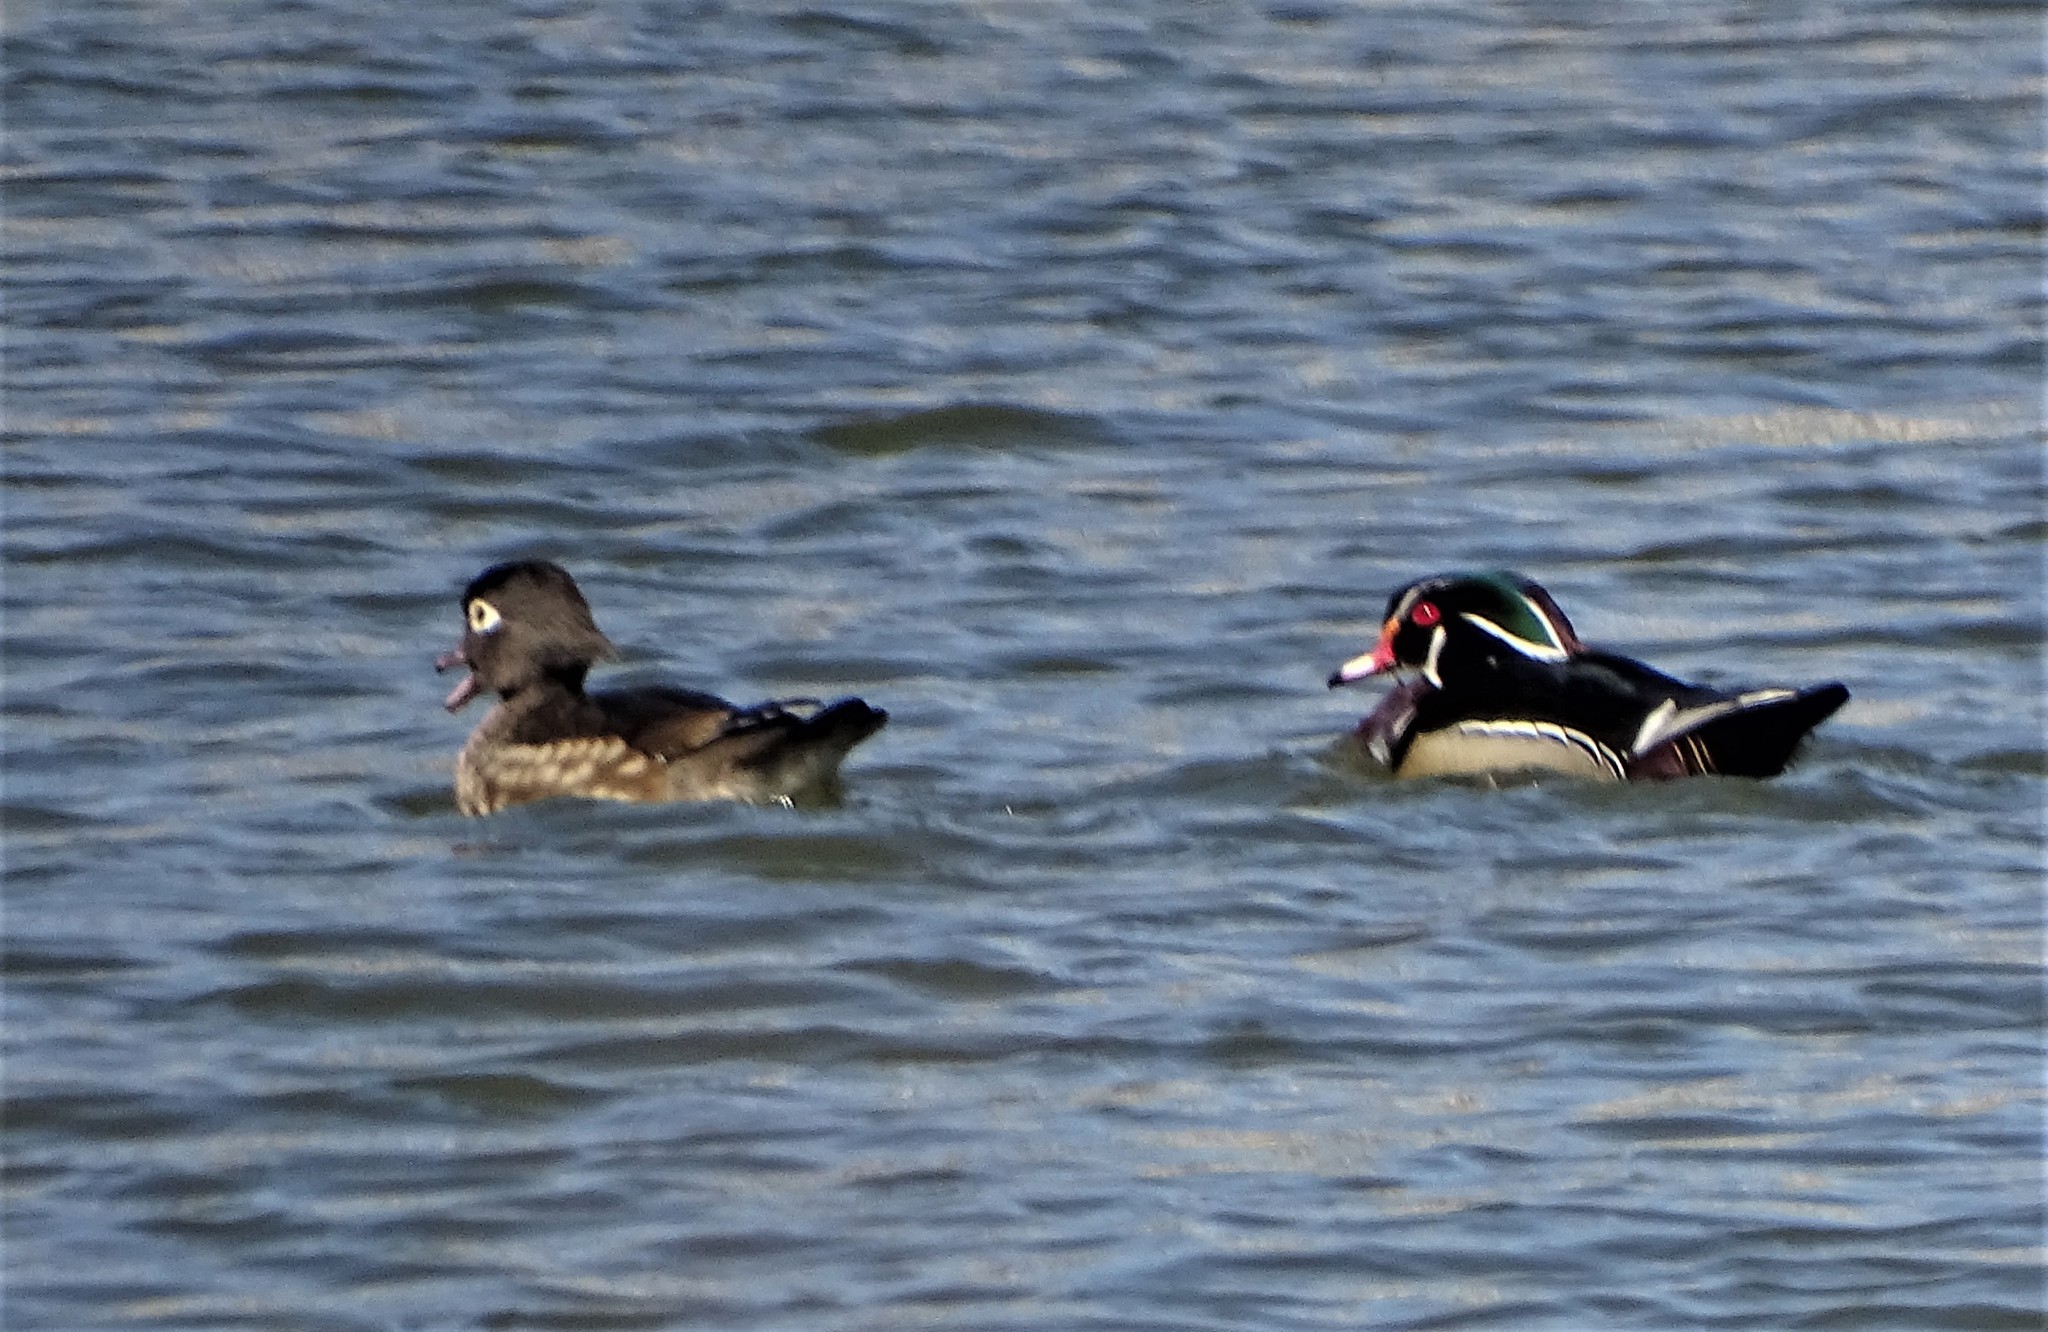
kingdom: Animalia
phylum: Chordata
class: Aves
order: Anseriformes
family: Anatidae
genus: Aix
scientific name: Aix sponsa
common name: Wood duck
